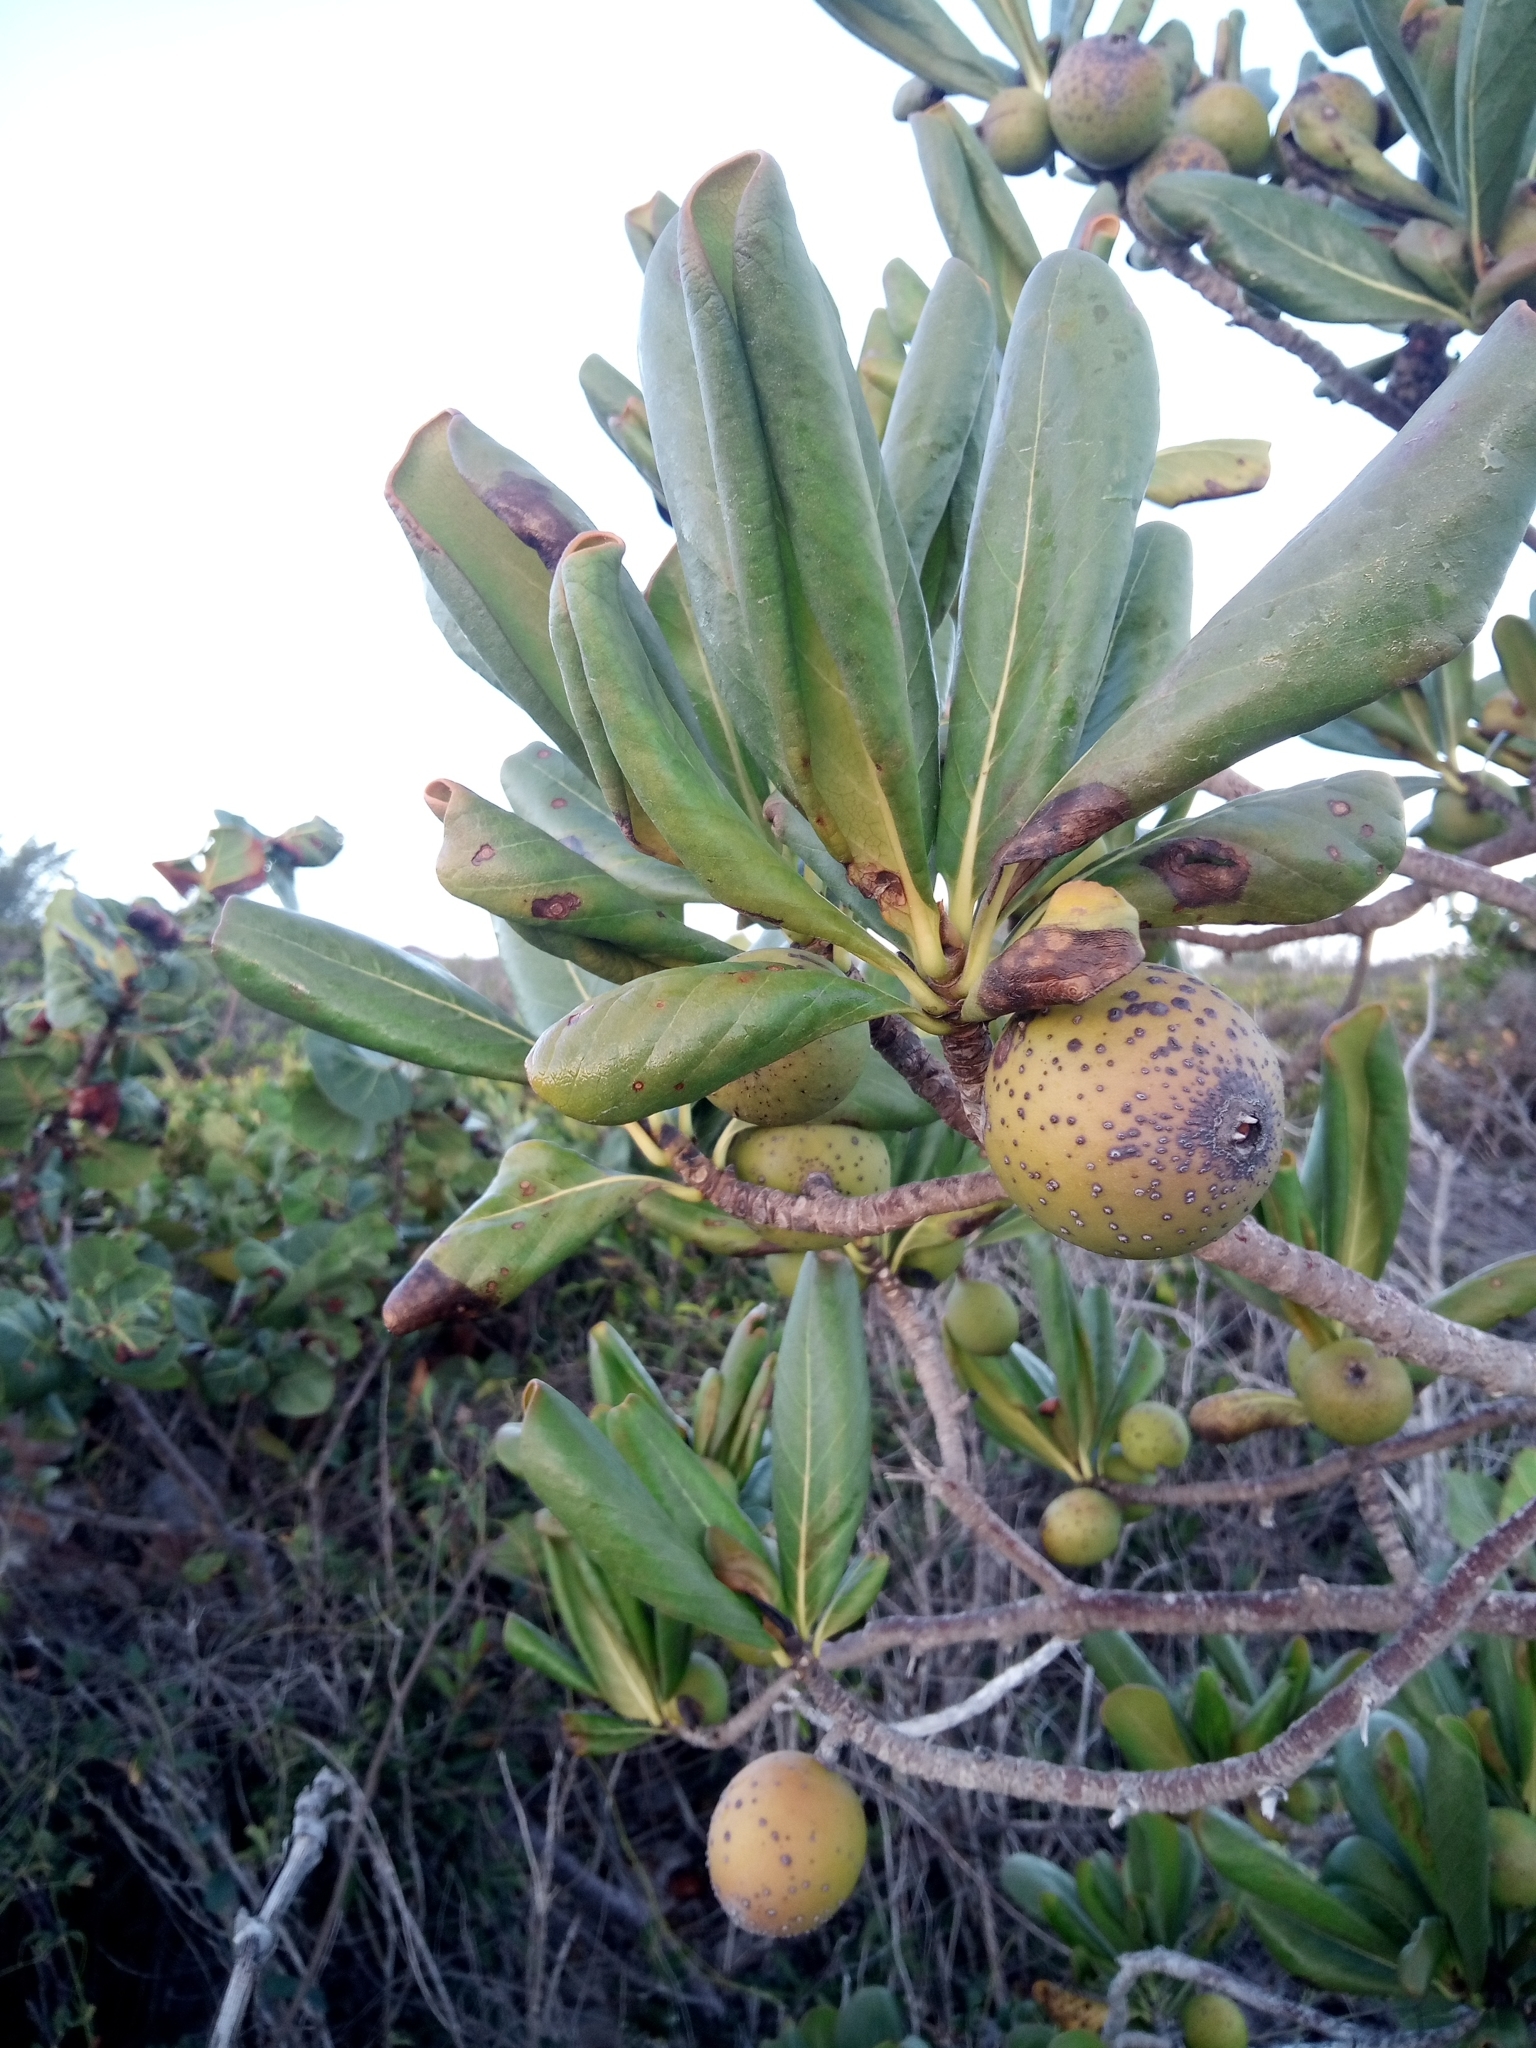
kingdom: Plantae
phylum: Tracheophyta
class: Magnoliopsida
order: Gentianales
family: Rubiaceae
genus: Casasia
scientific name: Casasia clusiifolia
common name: Seven-year apple
